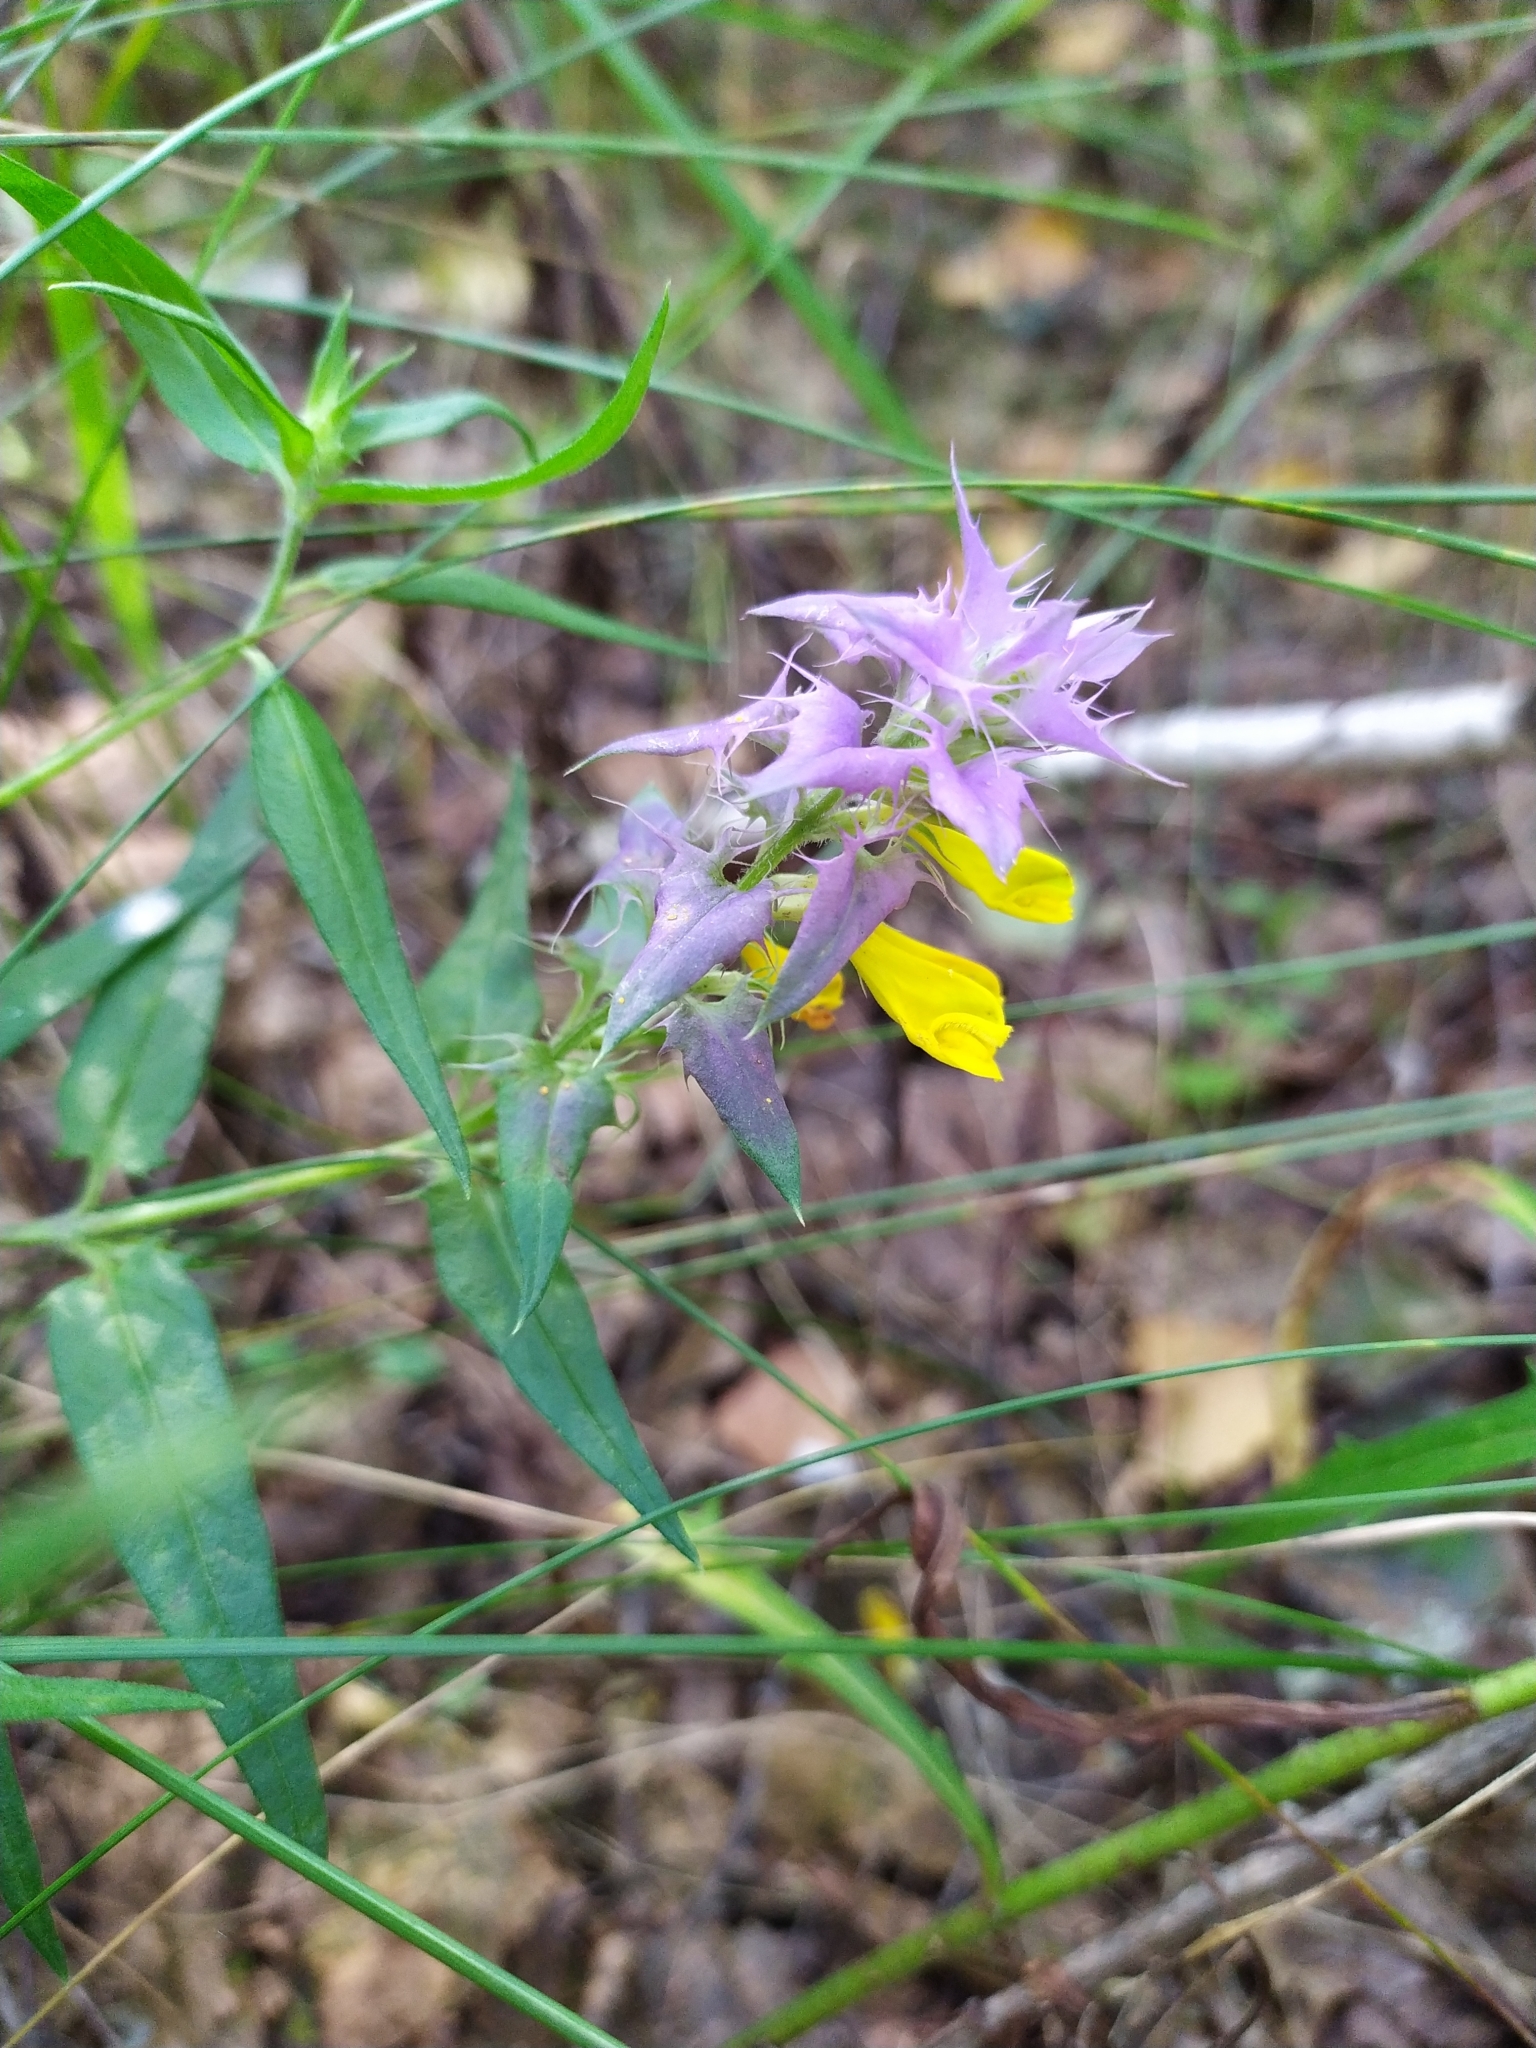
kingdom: Plantae
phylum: Tracheophyta
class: Magnoliopsida
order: Lamiales
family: Orobanchaceae
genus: Melampyrum
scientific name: Melampyrum nemorosum
